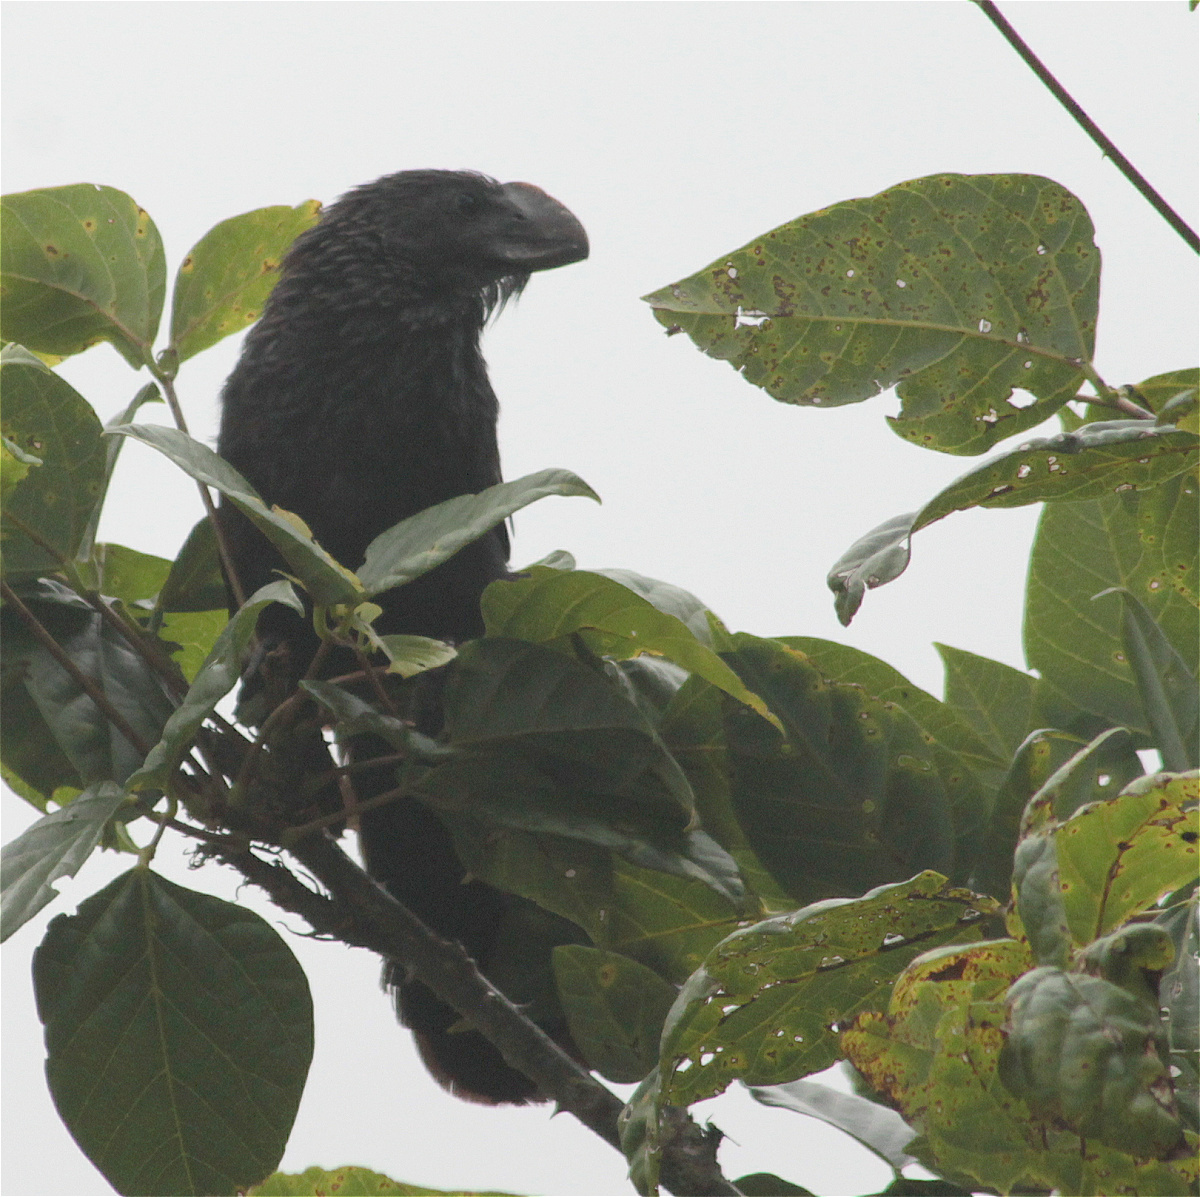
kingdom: Animalia
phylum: Chordata
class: Aves
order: Cuculiformes
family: Cuculidae
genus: Crotophaga
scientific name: Crotophaga ani
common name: Smooth-billed ani
